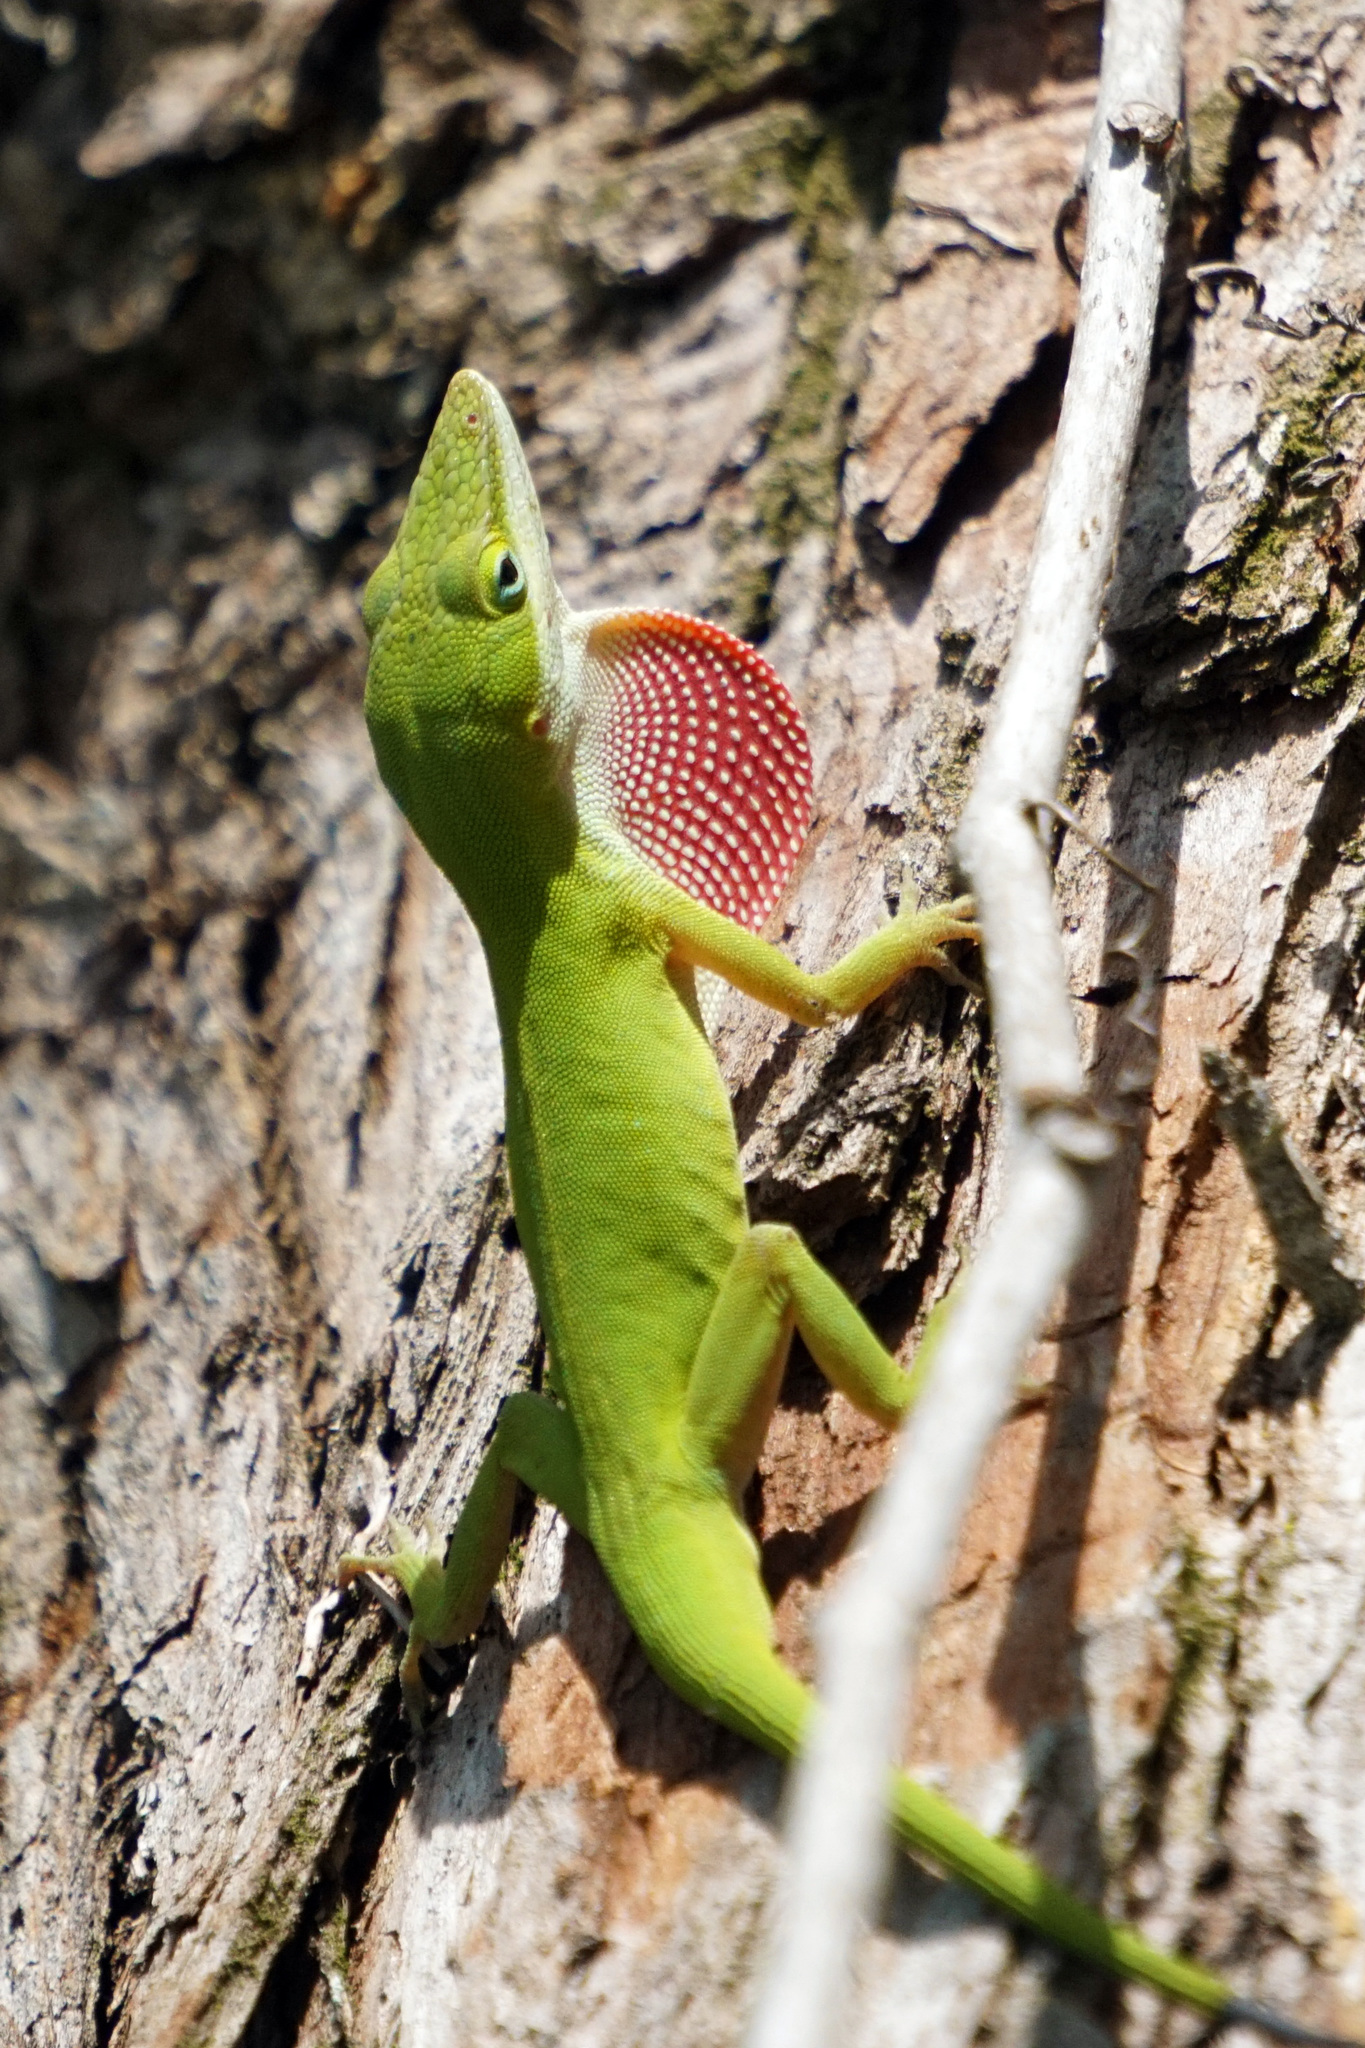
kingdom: Animalia
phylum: Chordata
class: Squamata
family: Dactyloidae
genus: Anolis
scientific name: Anolis carolinensis
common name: Green anole
